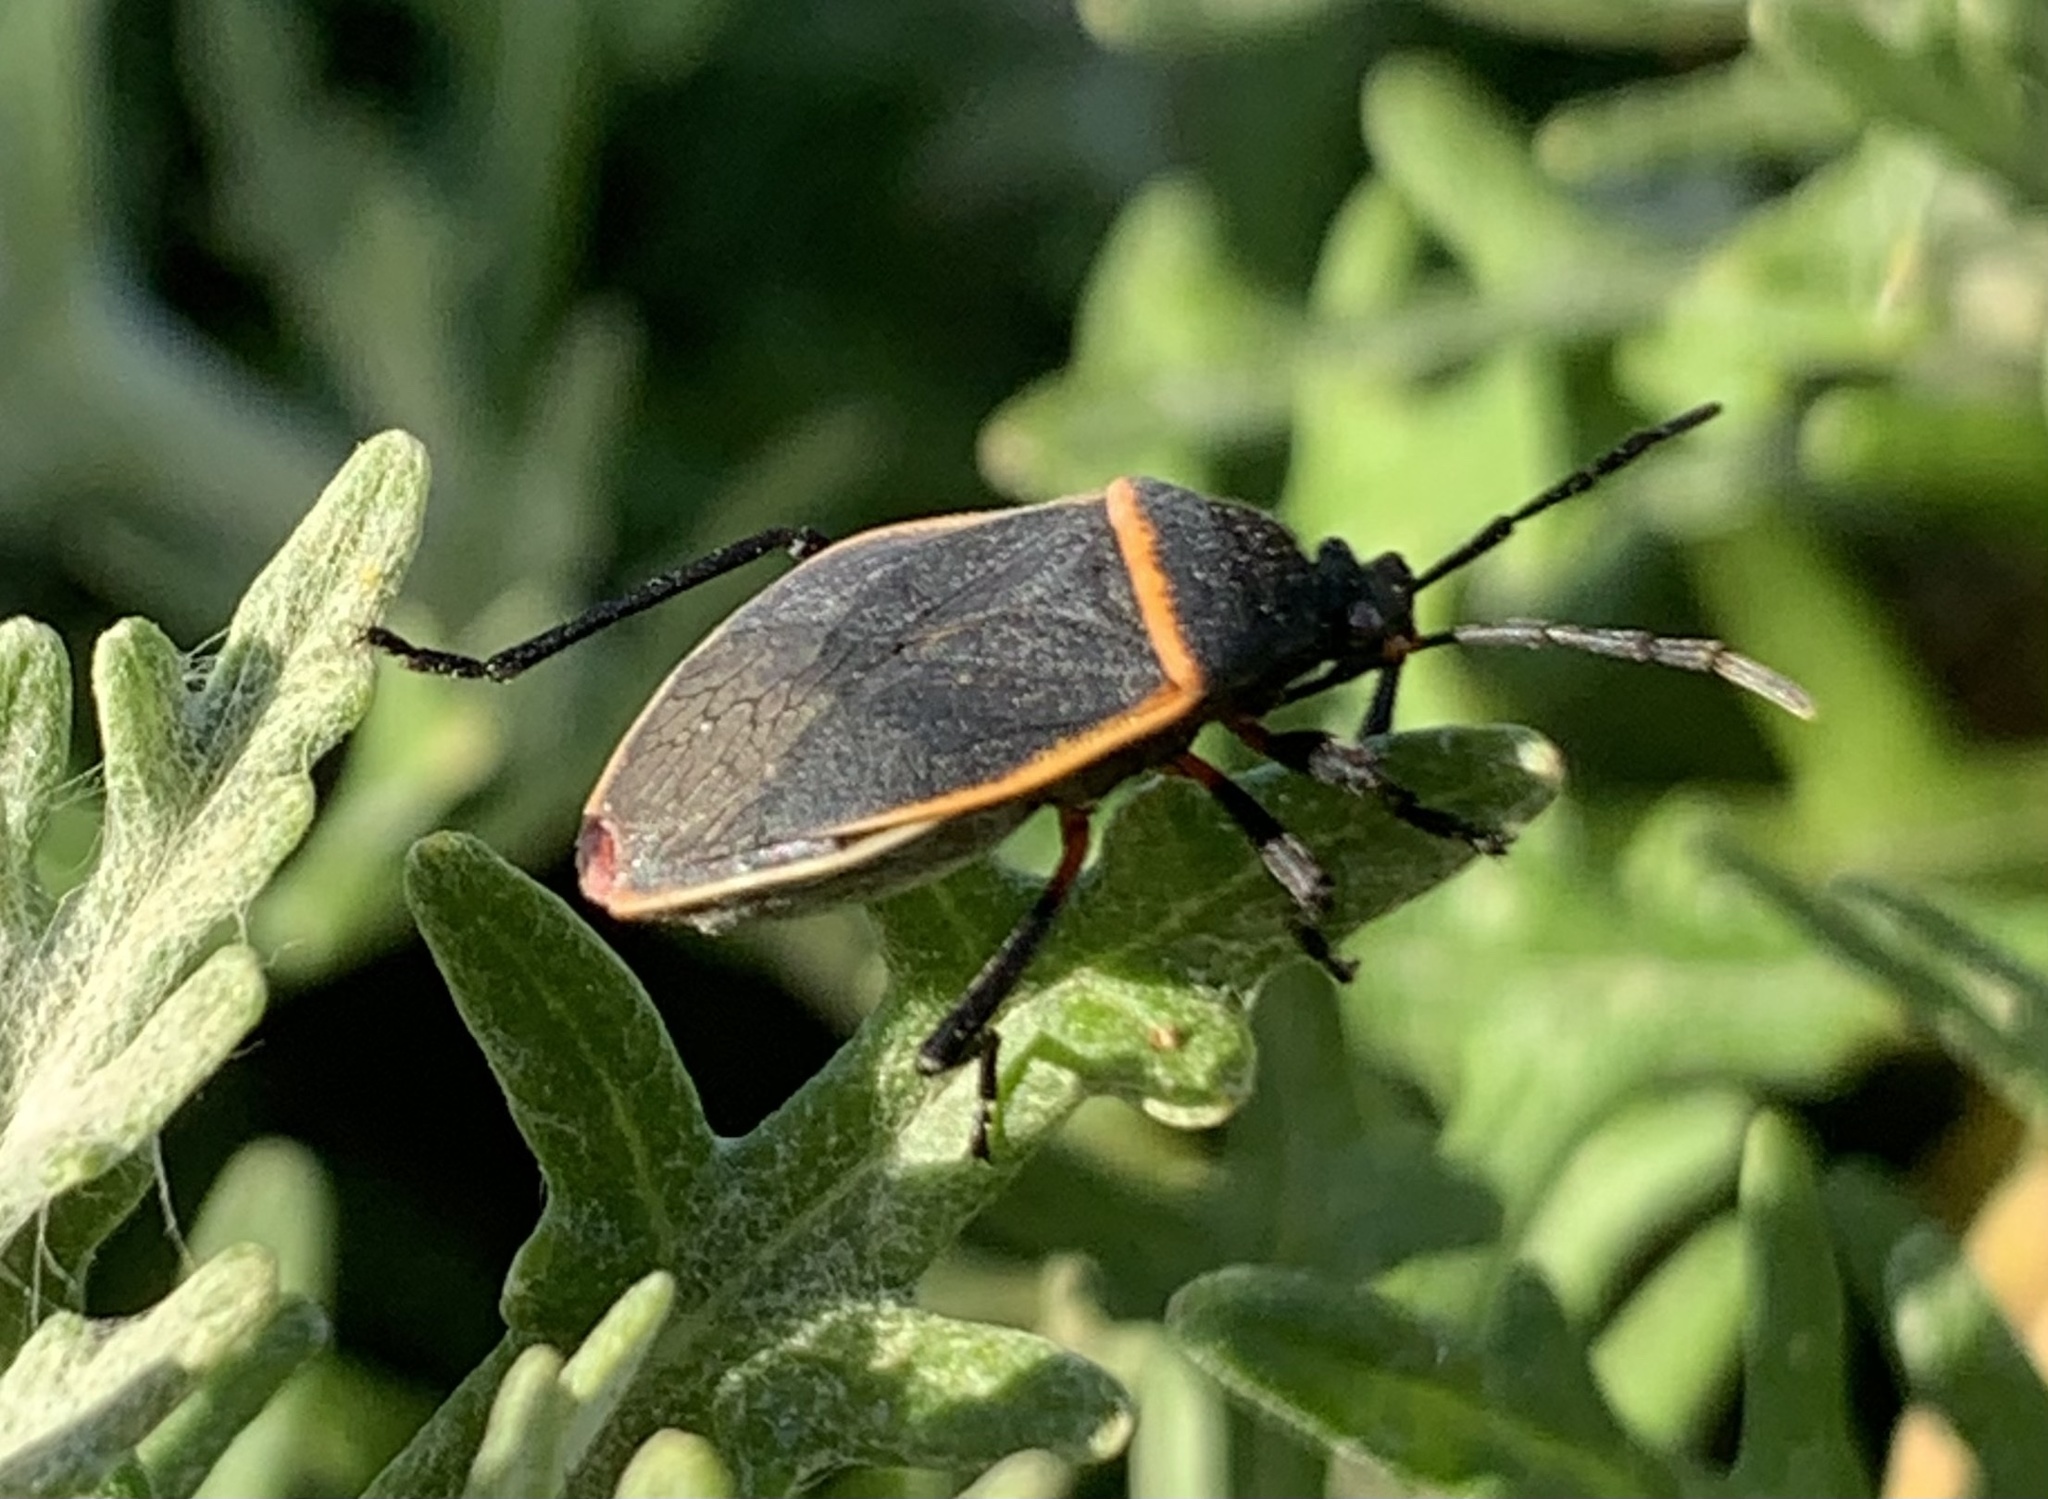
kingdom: Animalia
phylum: Arthropoda
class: Insecta
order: Hemiptera
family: Largidae
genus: Largus
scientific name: Largus californicus
